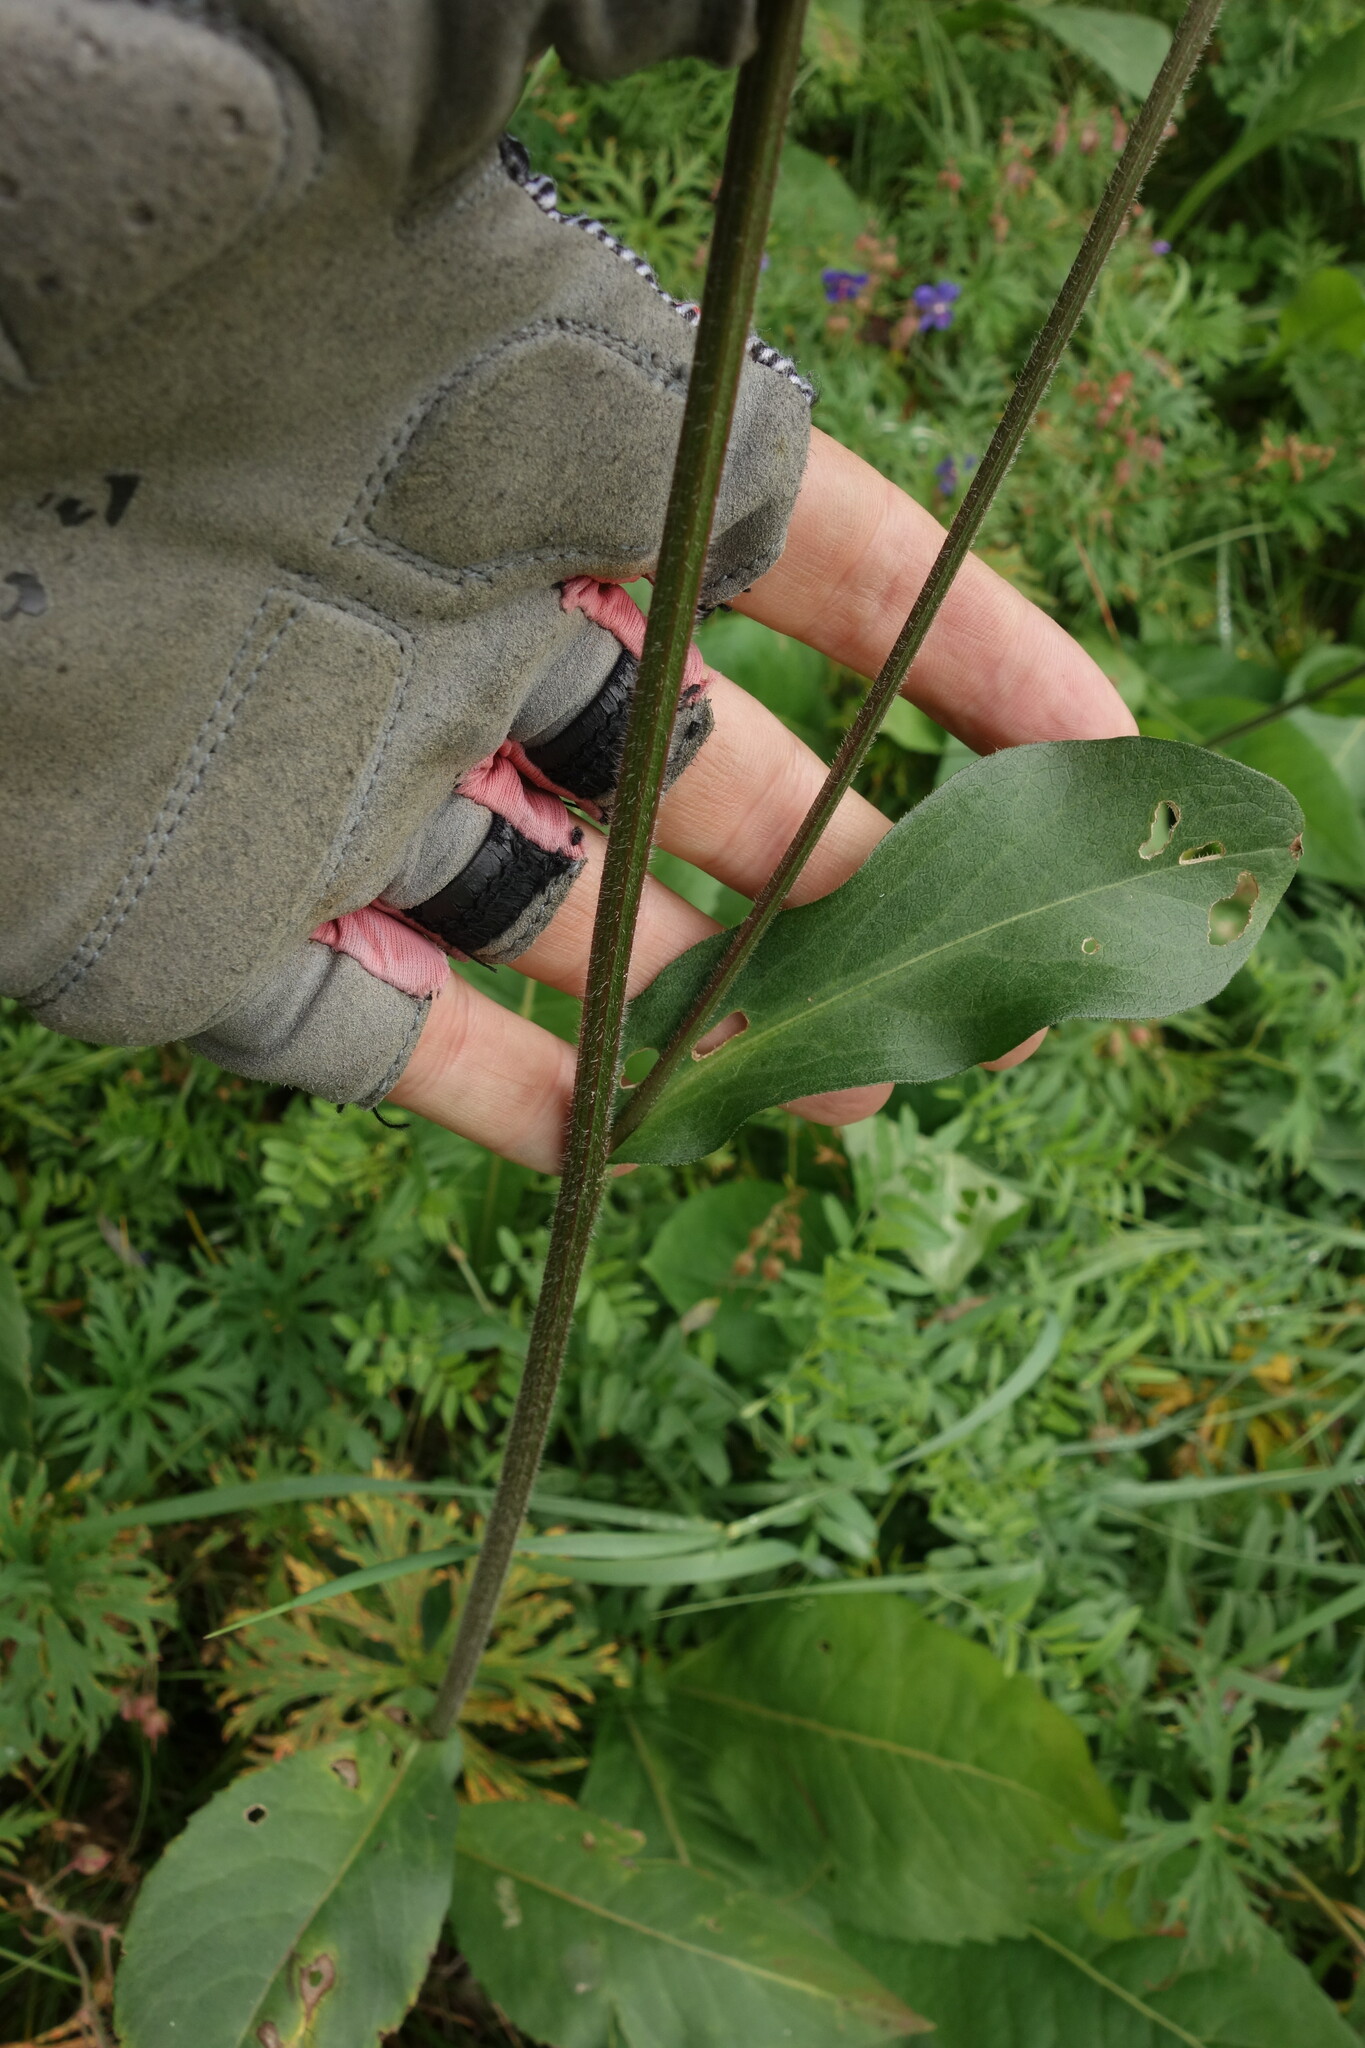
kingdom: Plantae
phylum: Tracheophyta
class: Magnoliopsida
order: Asterales
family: Asteraceae
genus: Aster
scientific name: Aster tataricus
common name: Tatarian aster
